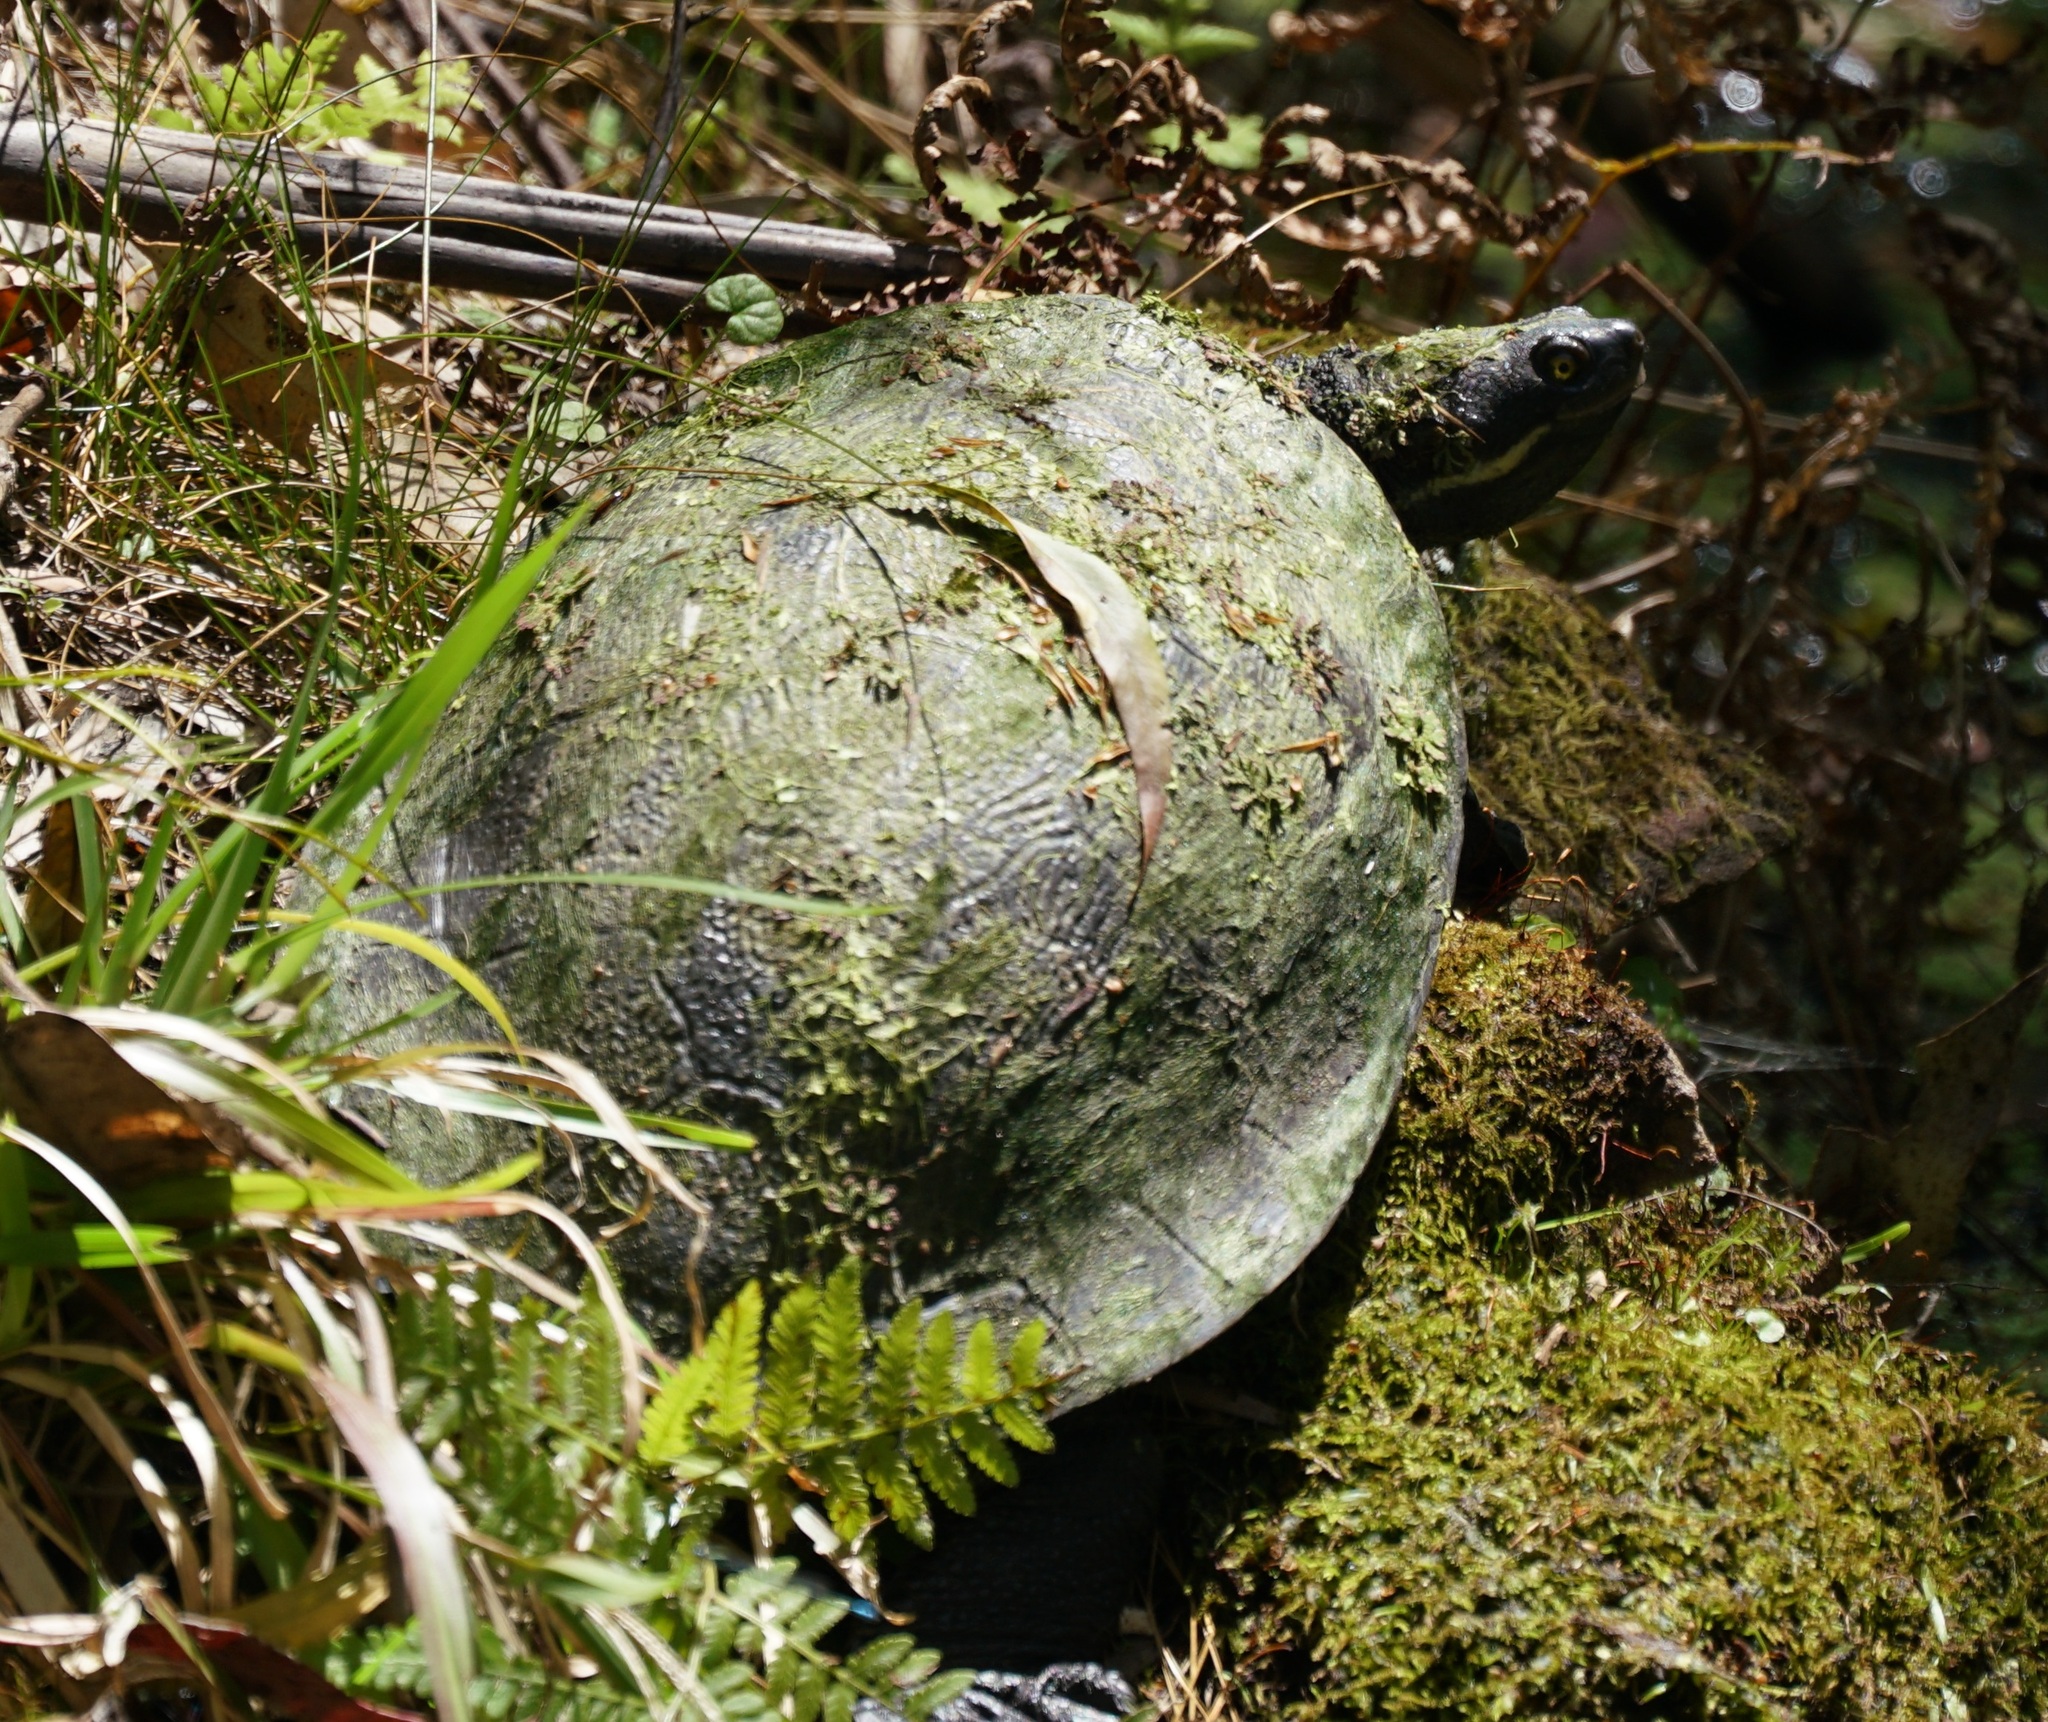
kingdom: Animalia
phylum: Chordata
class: Testudines
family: Chelidae
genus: Emydura
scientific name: Emydura macquarii
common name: Murray river turtle
